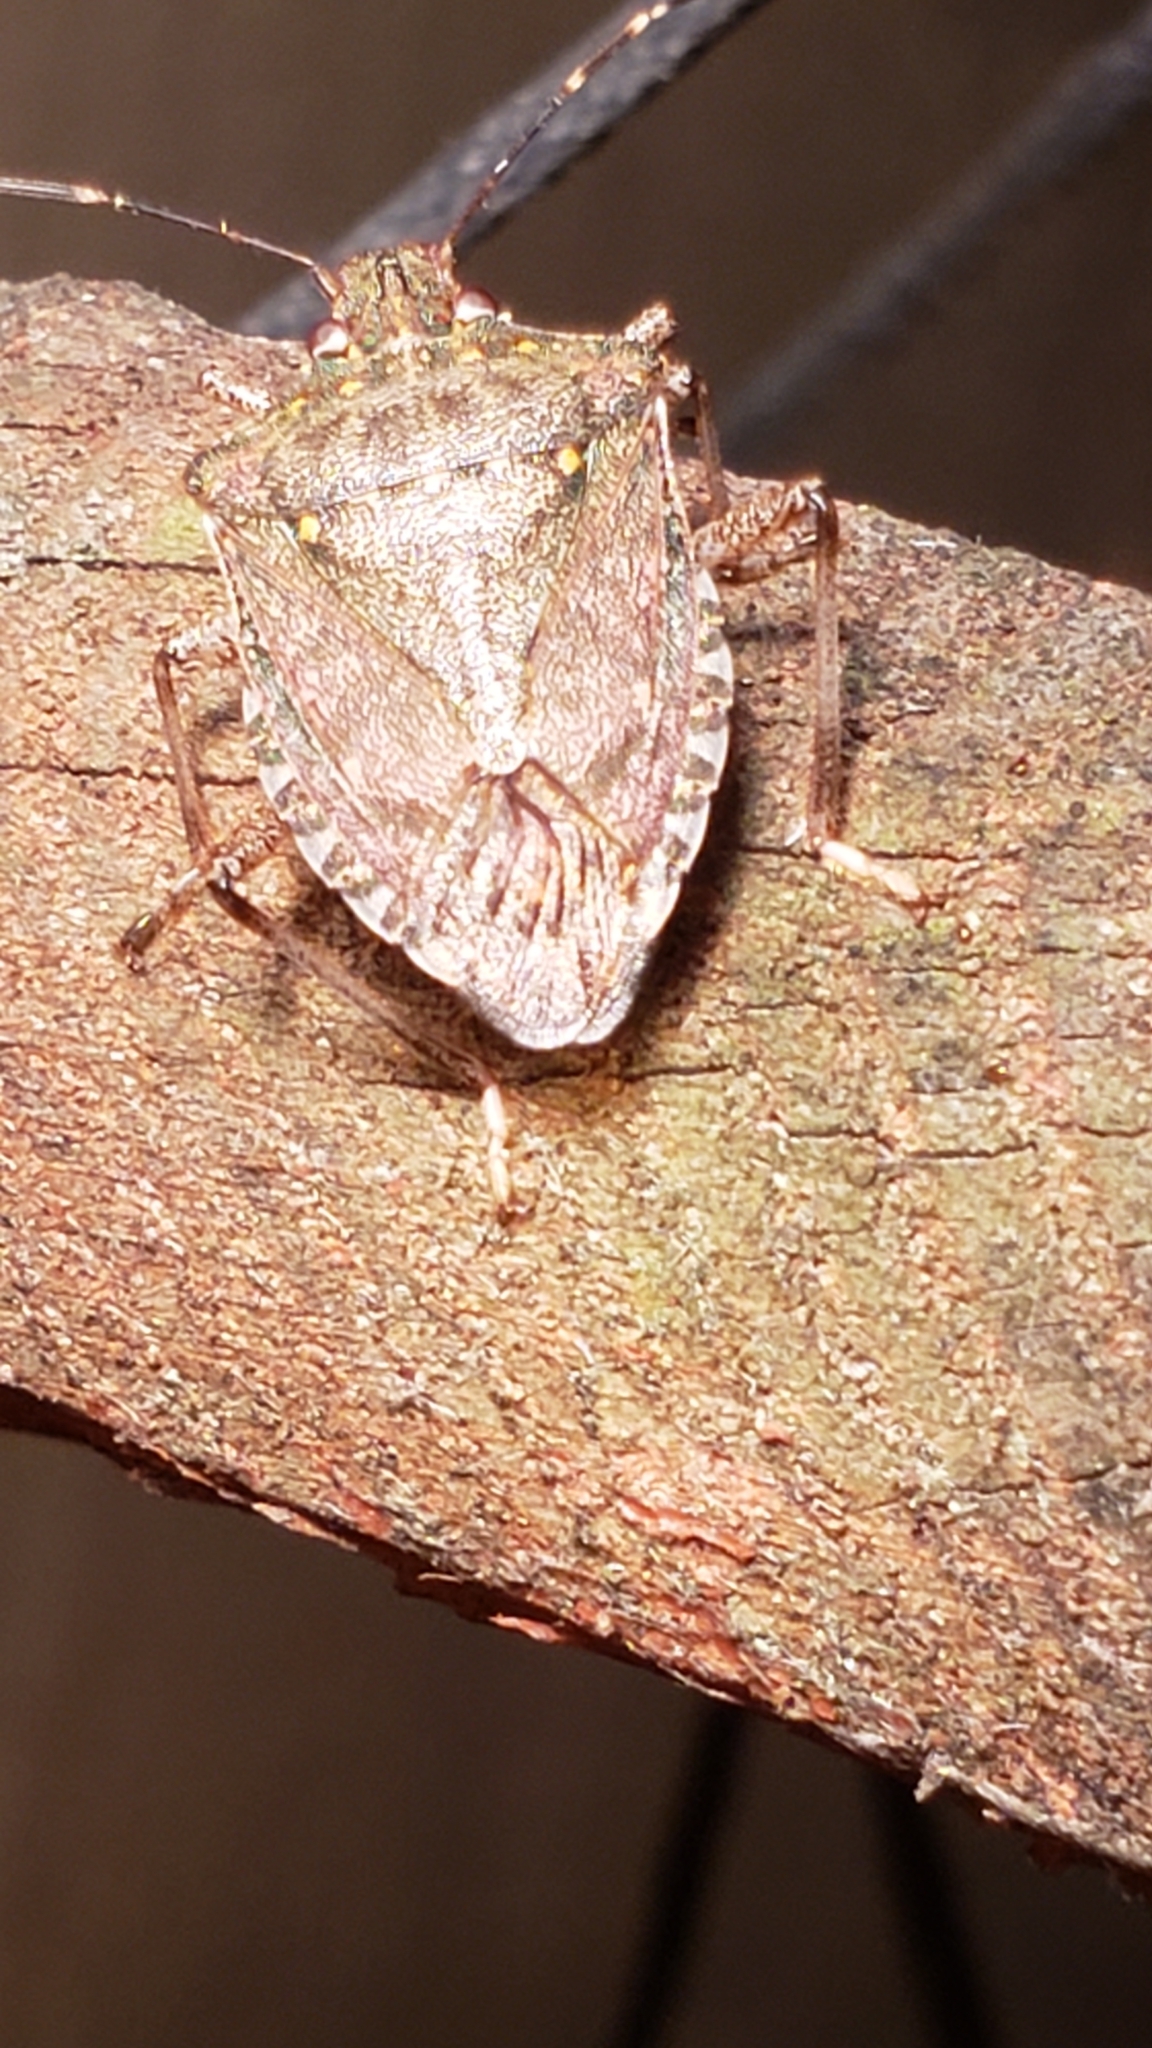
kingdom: Animalia
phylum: Arthropoda
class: Insecta
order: Hemiptera
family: Pentatomidae
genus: Halyomorpha
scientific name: Halyomorpha halys
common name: Brown marmorated stink bug
